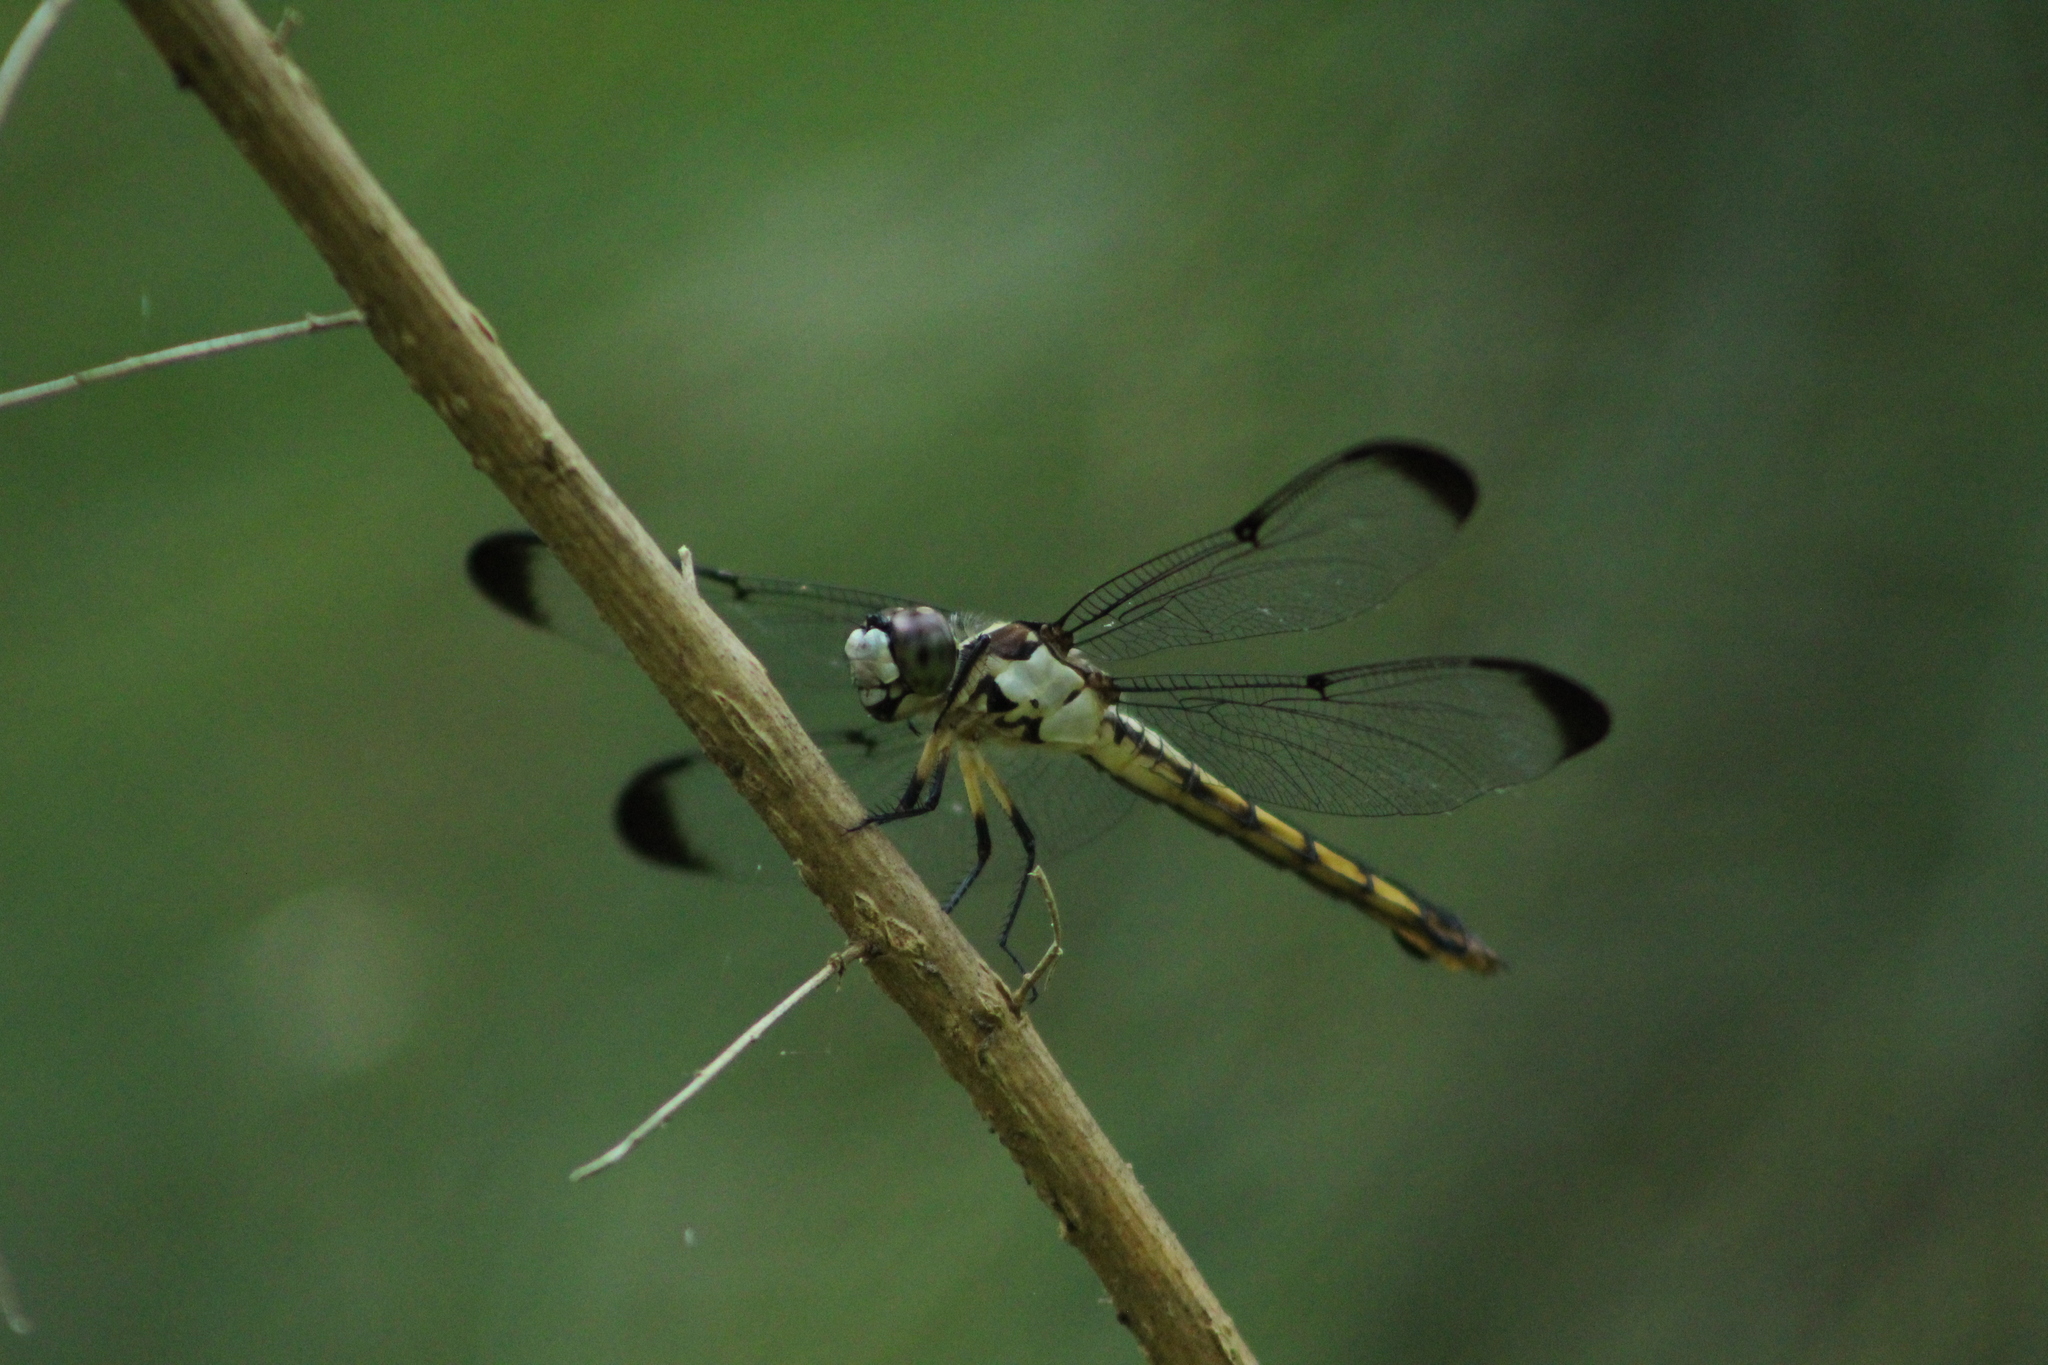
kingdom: Animalia
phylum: Arthropoda
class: Insecta
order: Odonata
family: Libellulidae
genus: Libellula
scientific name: Libellula vibrans
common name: Great blue skimmer
